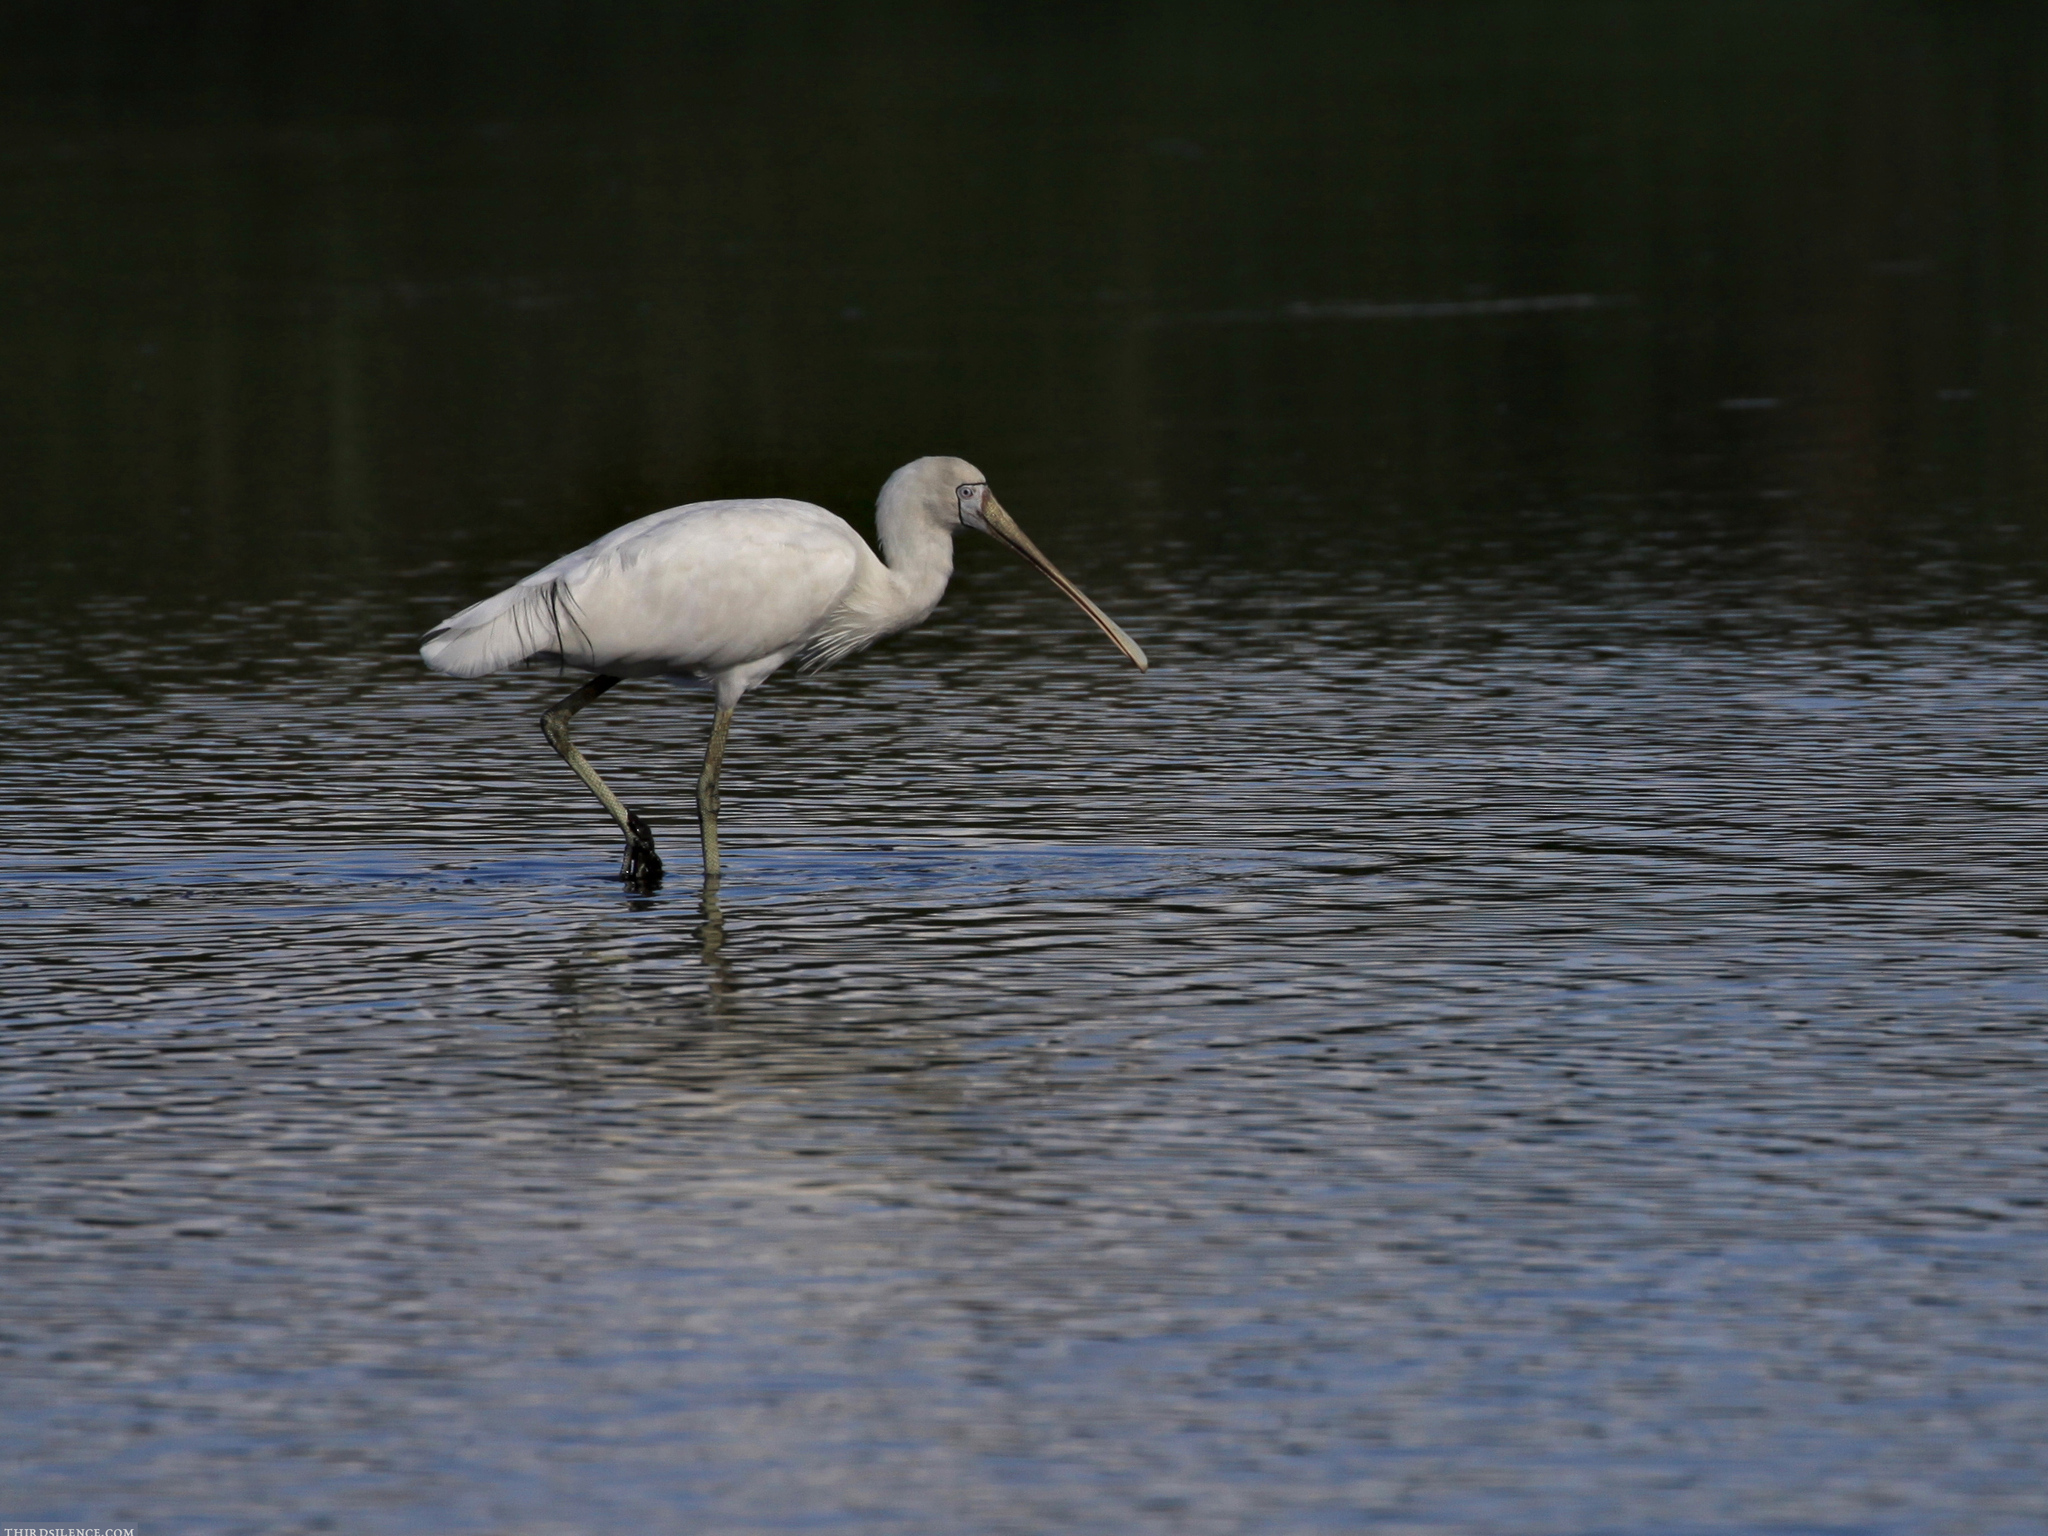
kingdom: Animalia
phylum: Chordata
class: Aves
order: Pelecaniformes
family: Threskiornithidae
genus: Platalea
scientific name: Platalea flavipes
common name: Yellow-billed spoonbill
